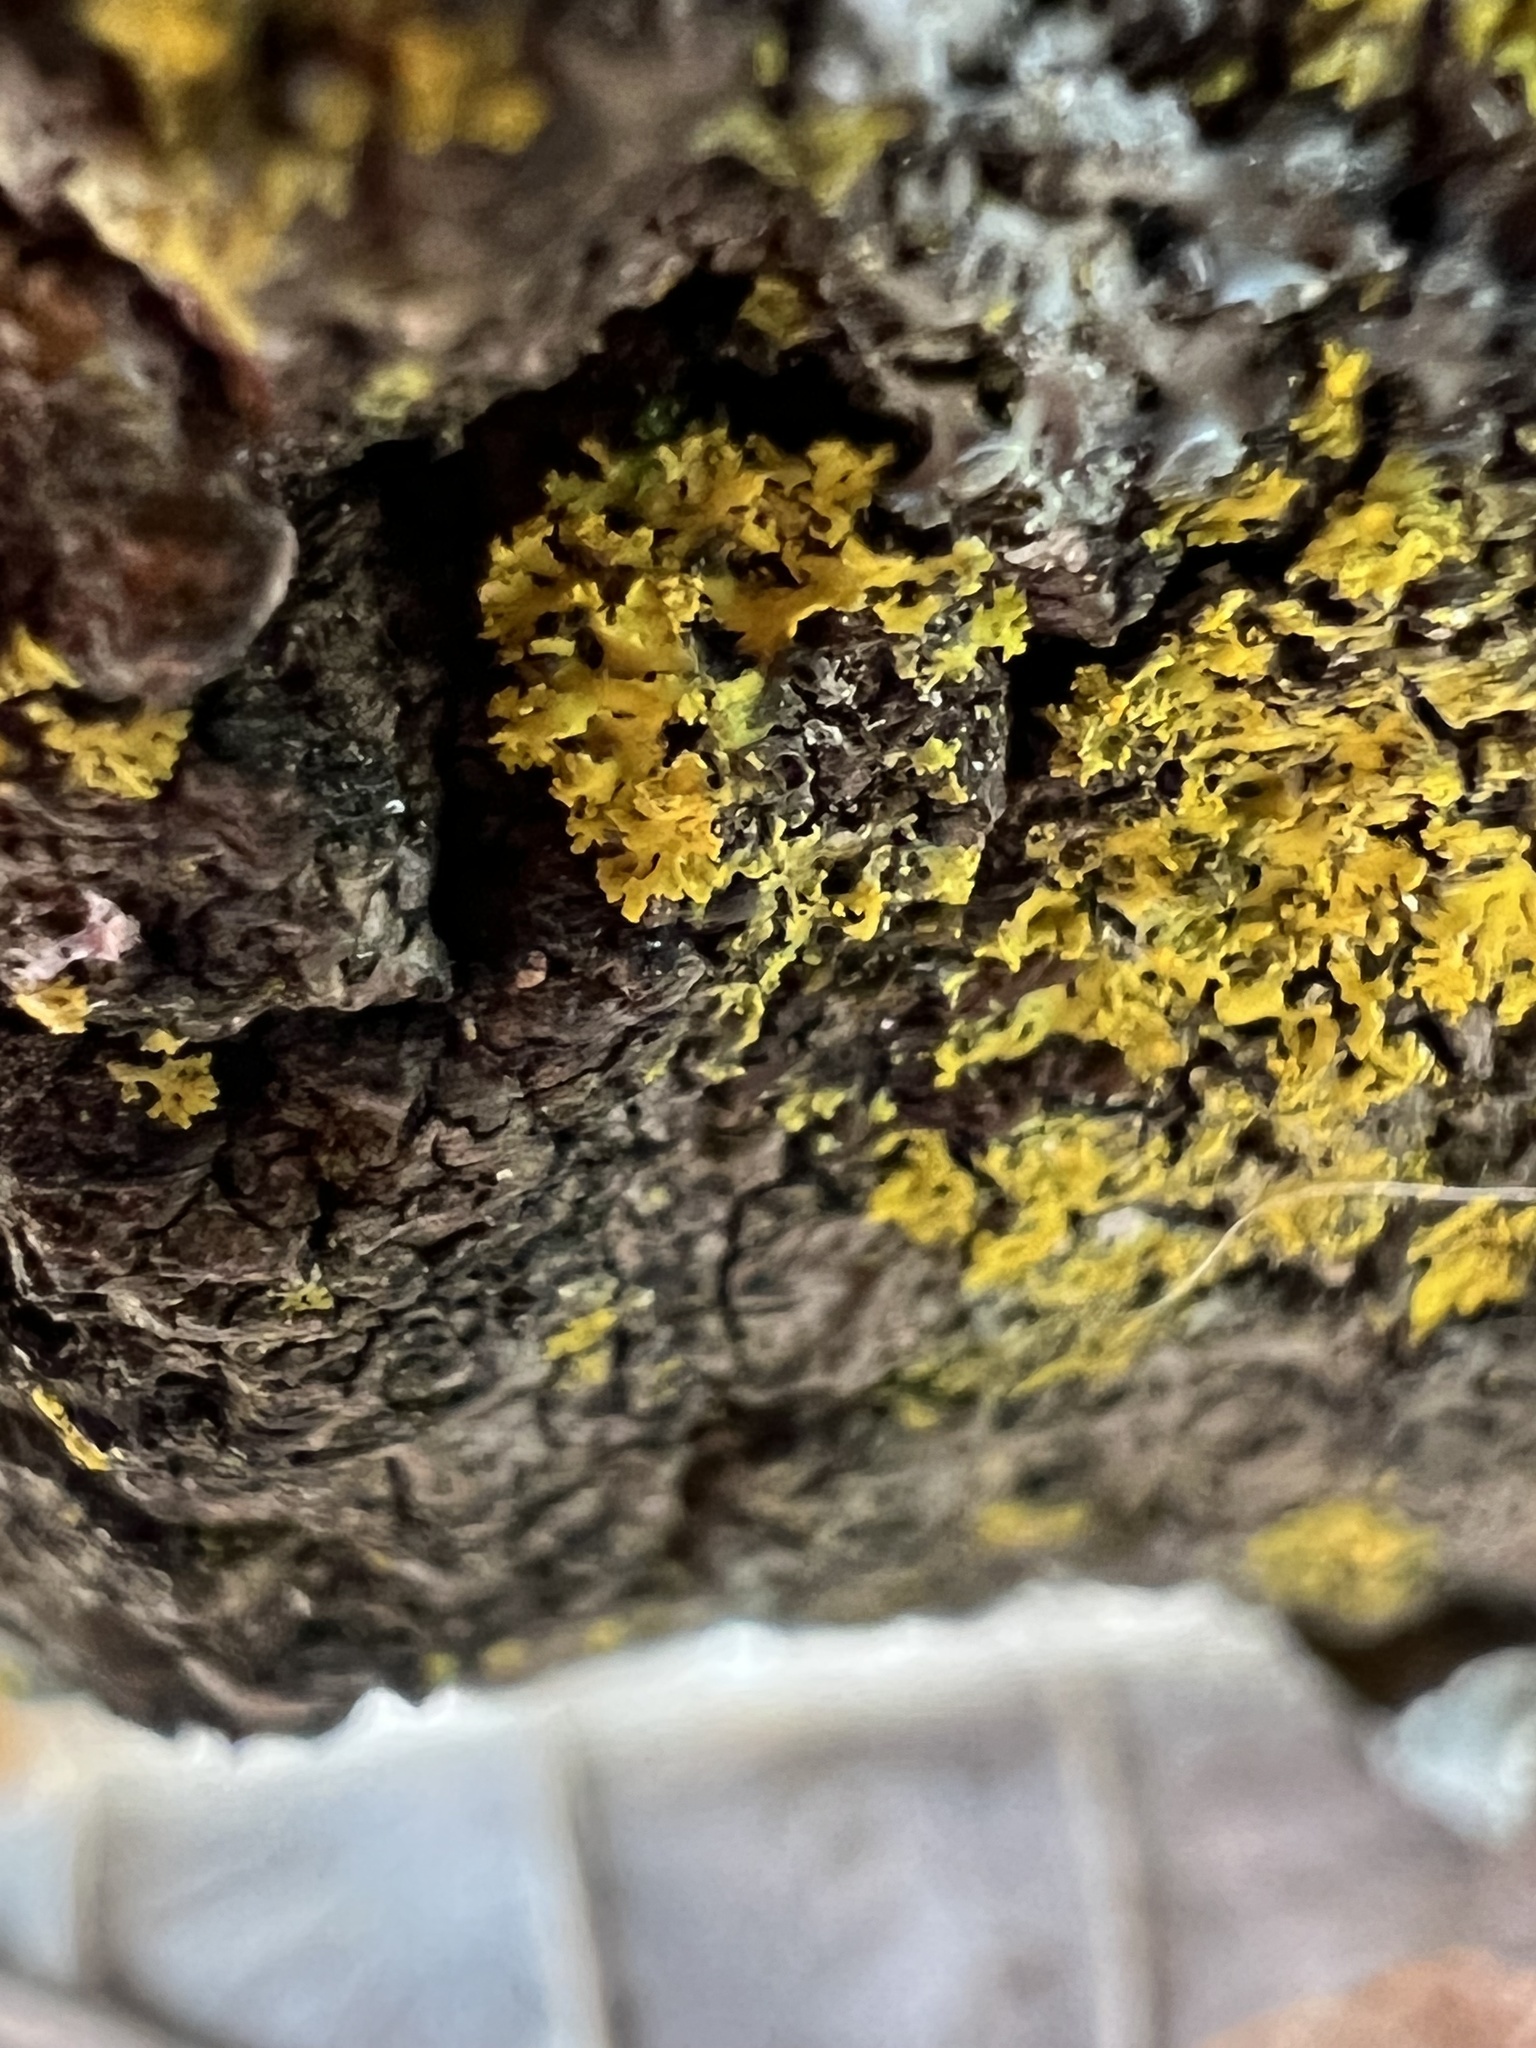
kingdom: Fungi
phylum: Ascomycota
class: Lecanoromycetes
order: Teloschistales
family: Teloschistaceae
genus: Gallowayella
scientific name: Gallowayella weberi
